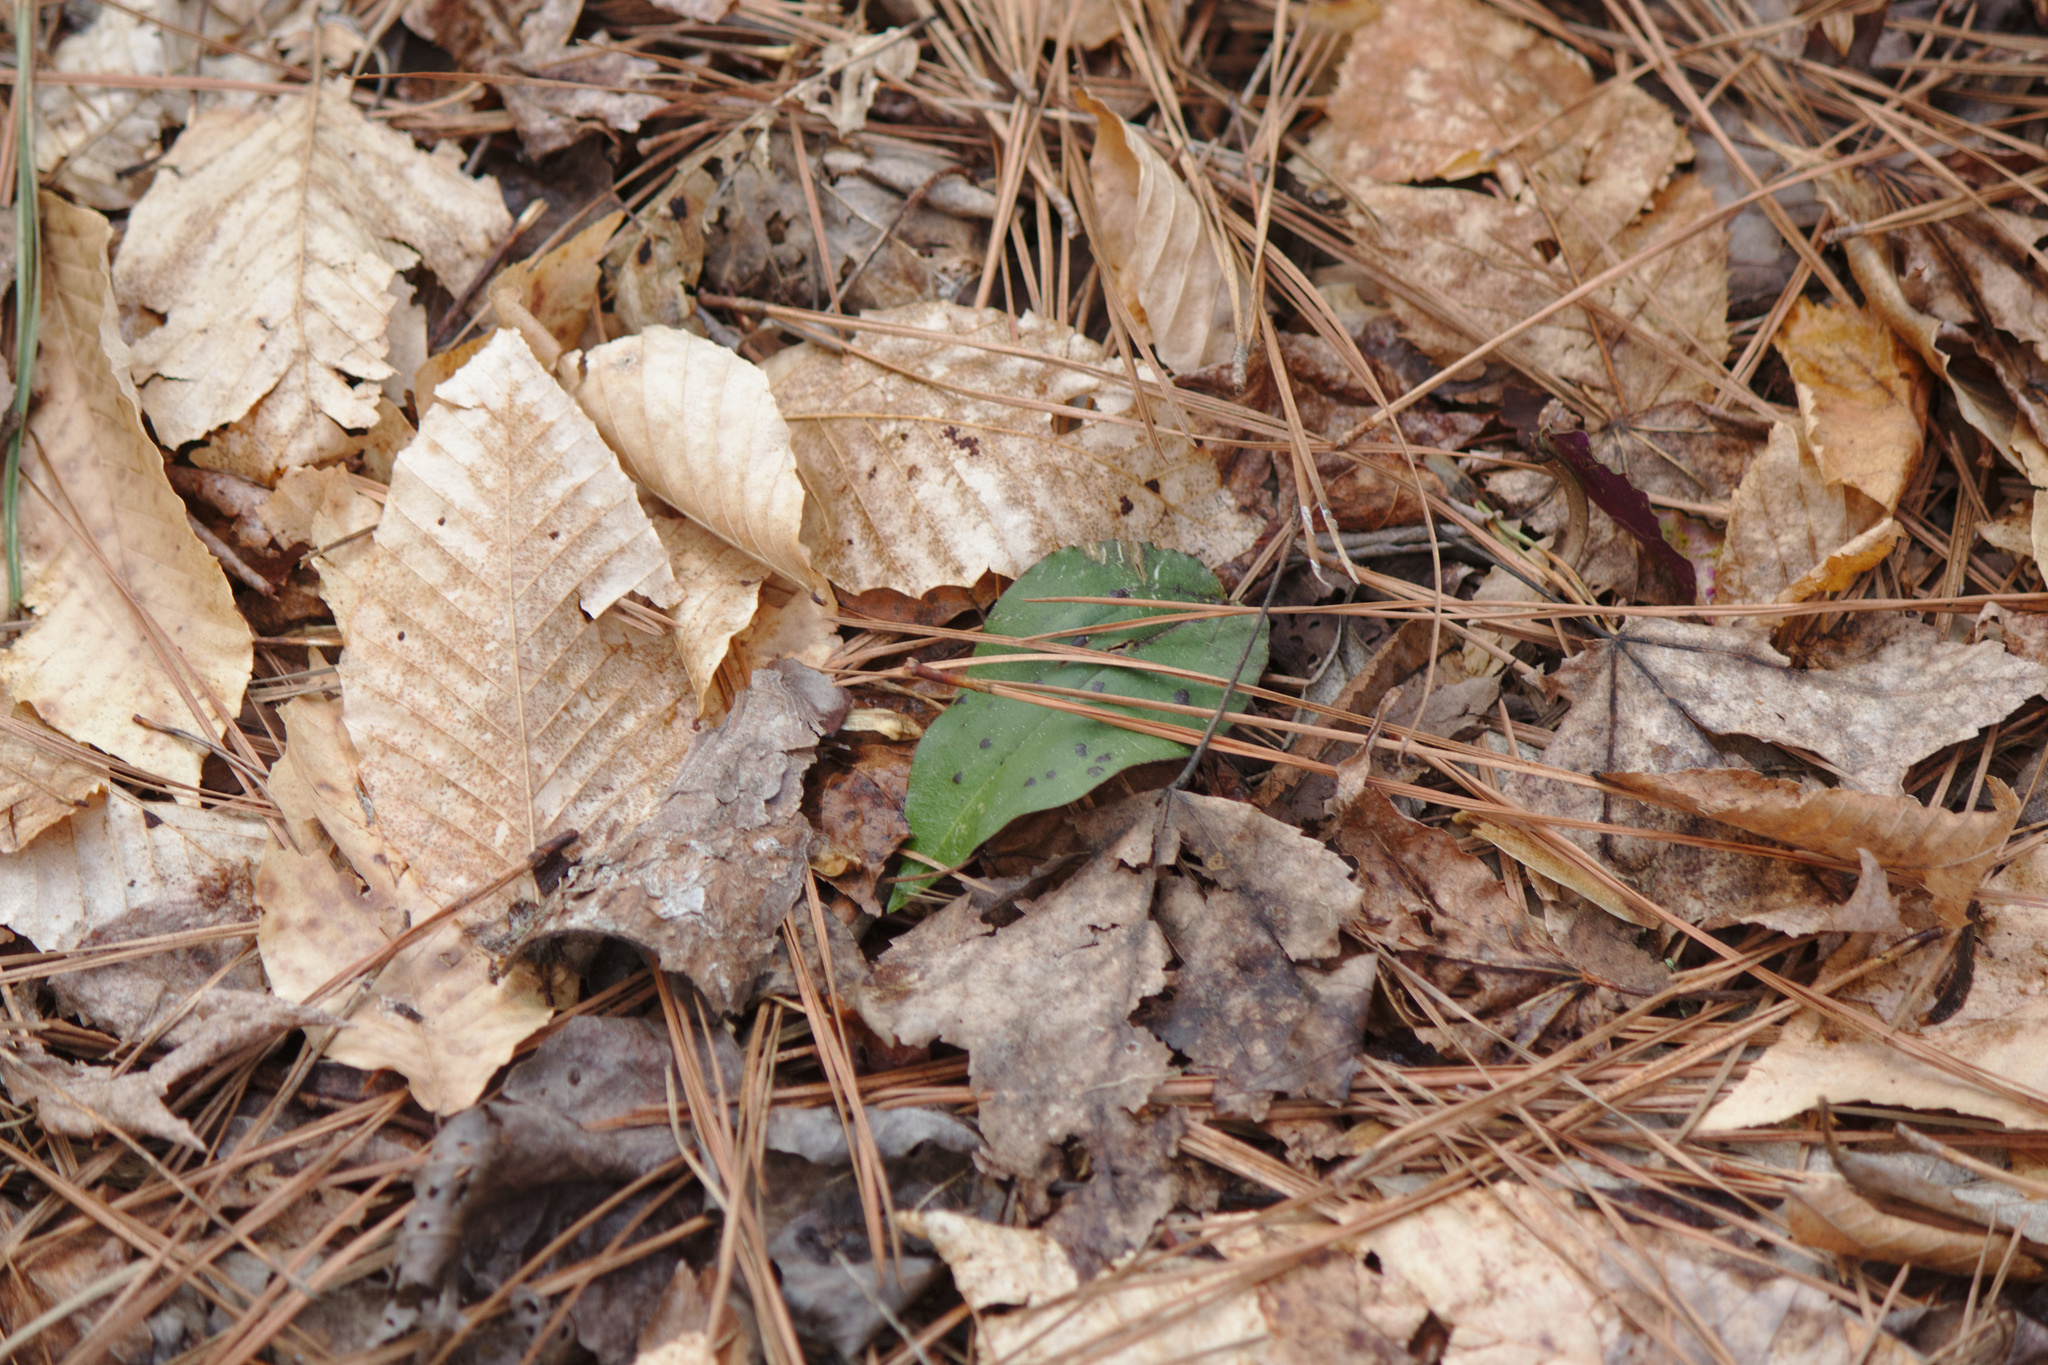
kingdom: Plantae
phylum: Tracheophyta
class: Liliopsida
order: Asparagales
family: Orchidaceae
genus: Tipularia
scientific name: Tipularia discolor
